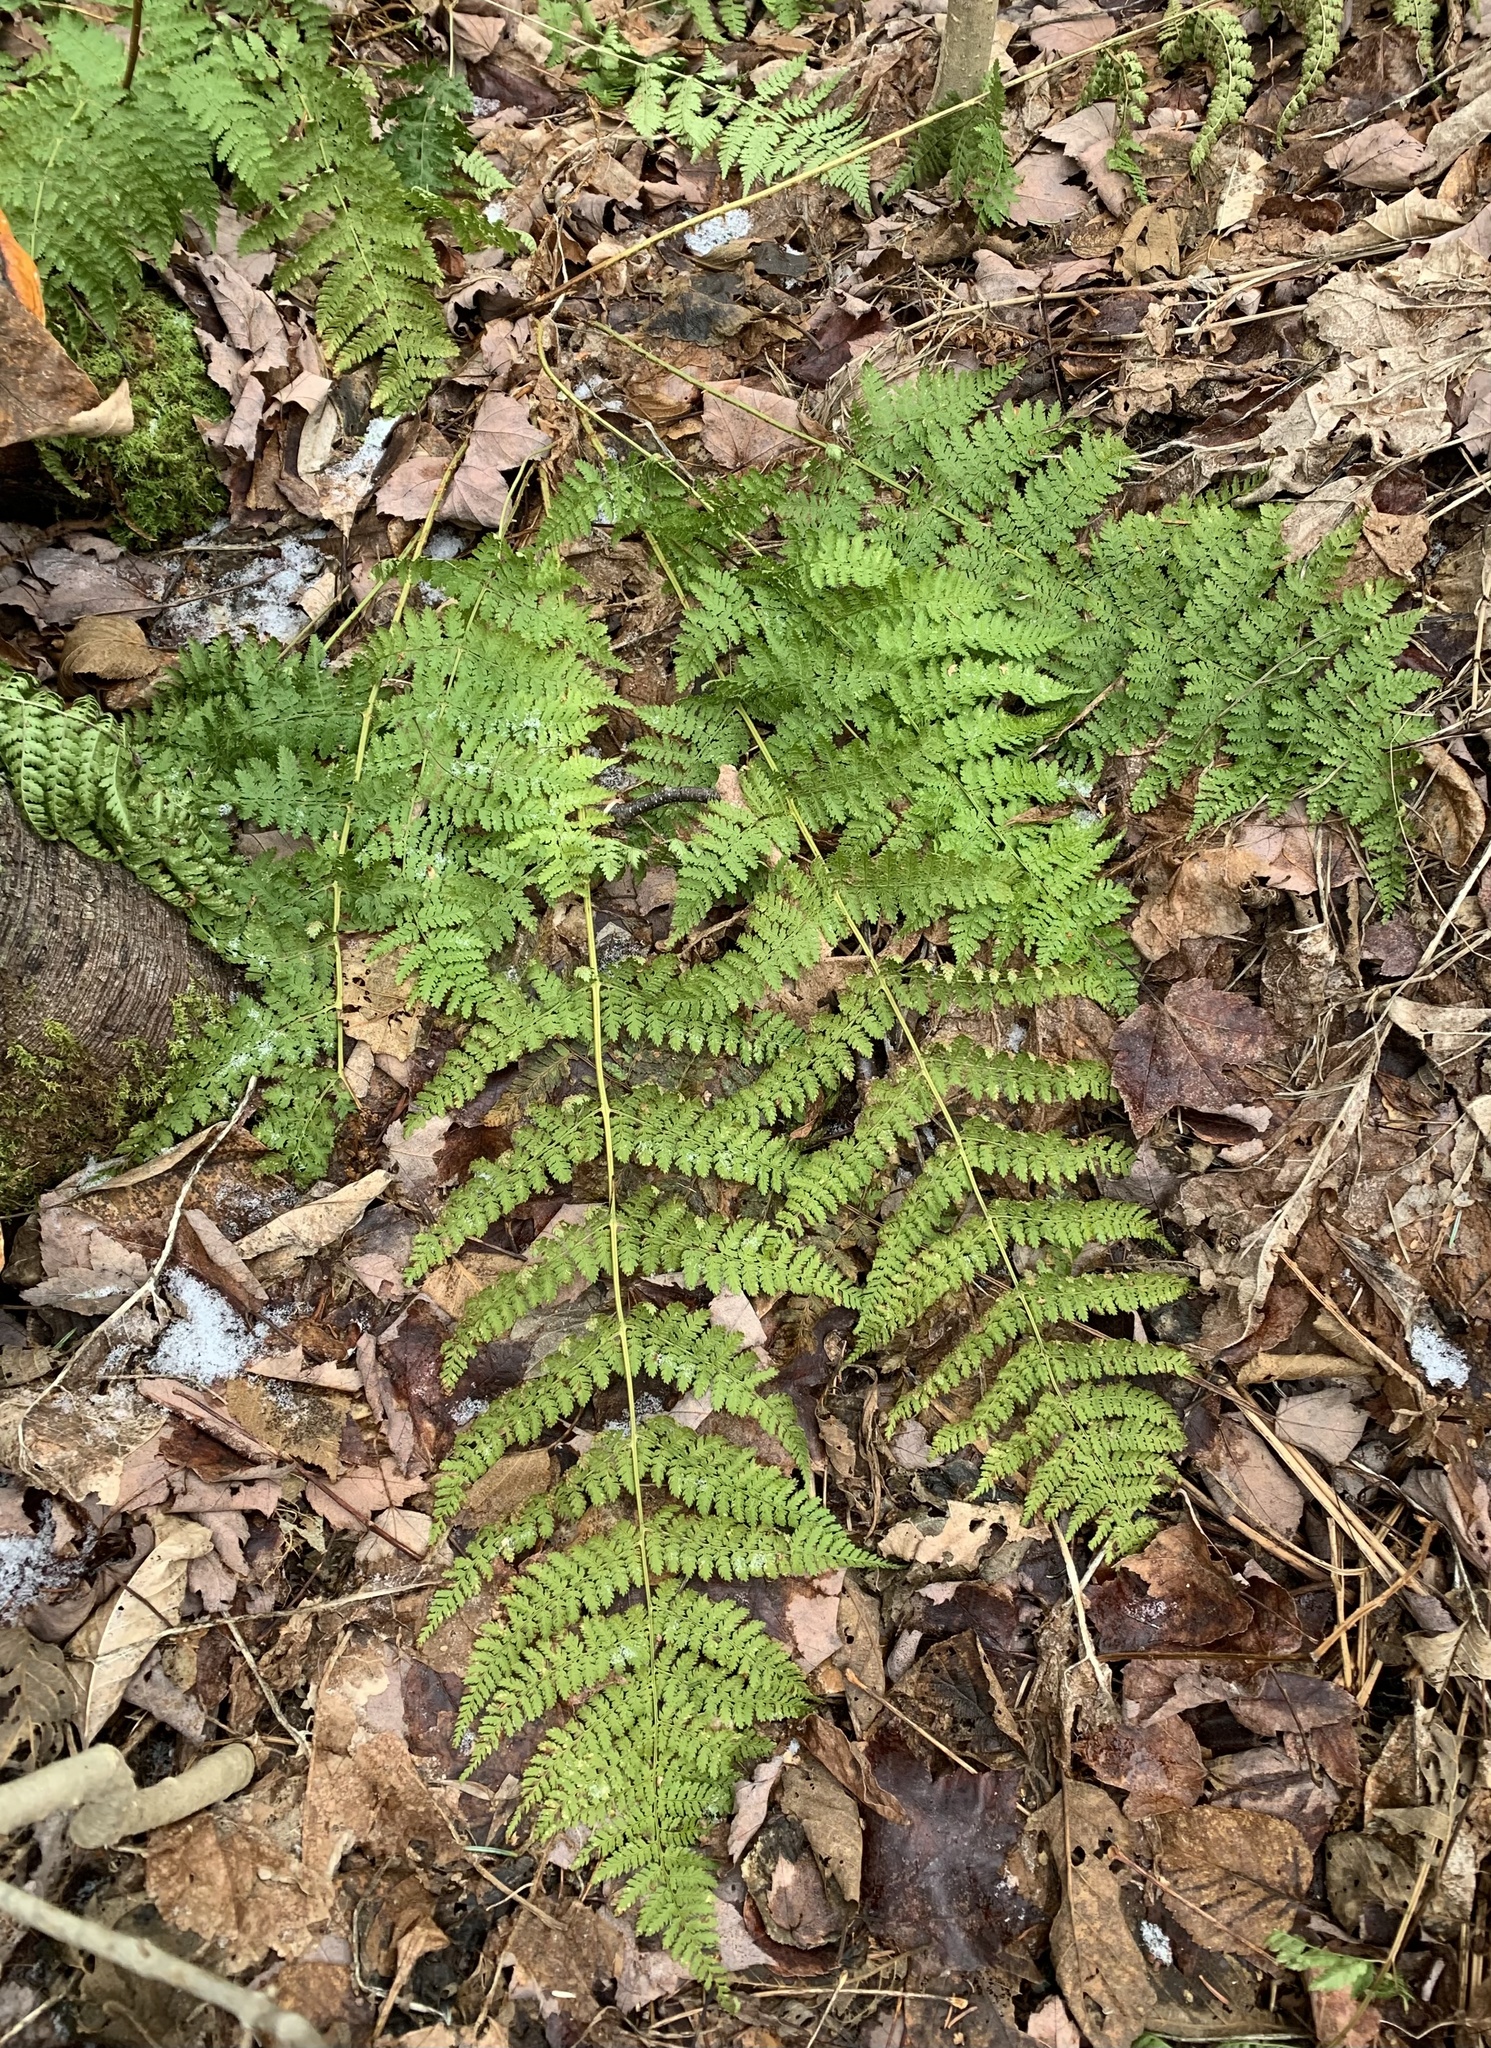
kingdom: Plantae
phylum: Tracheophyta
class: Polypodiopsida
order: Polypodiales
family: Dryopteridaceae
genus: Dryopteris
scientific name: Dryopteris intermedia
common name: Evergreen wood fern
